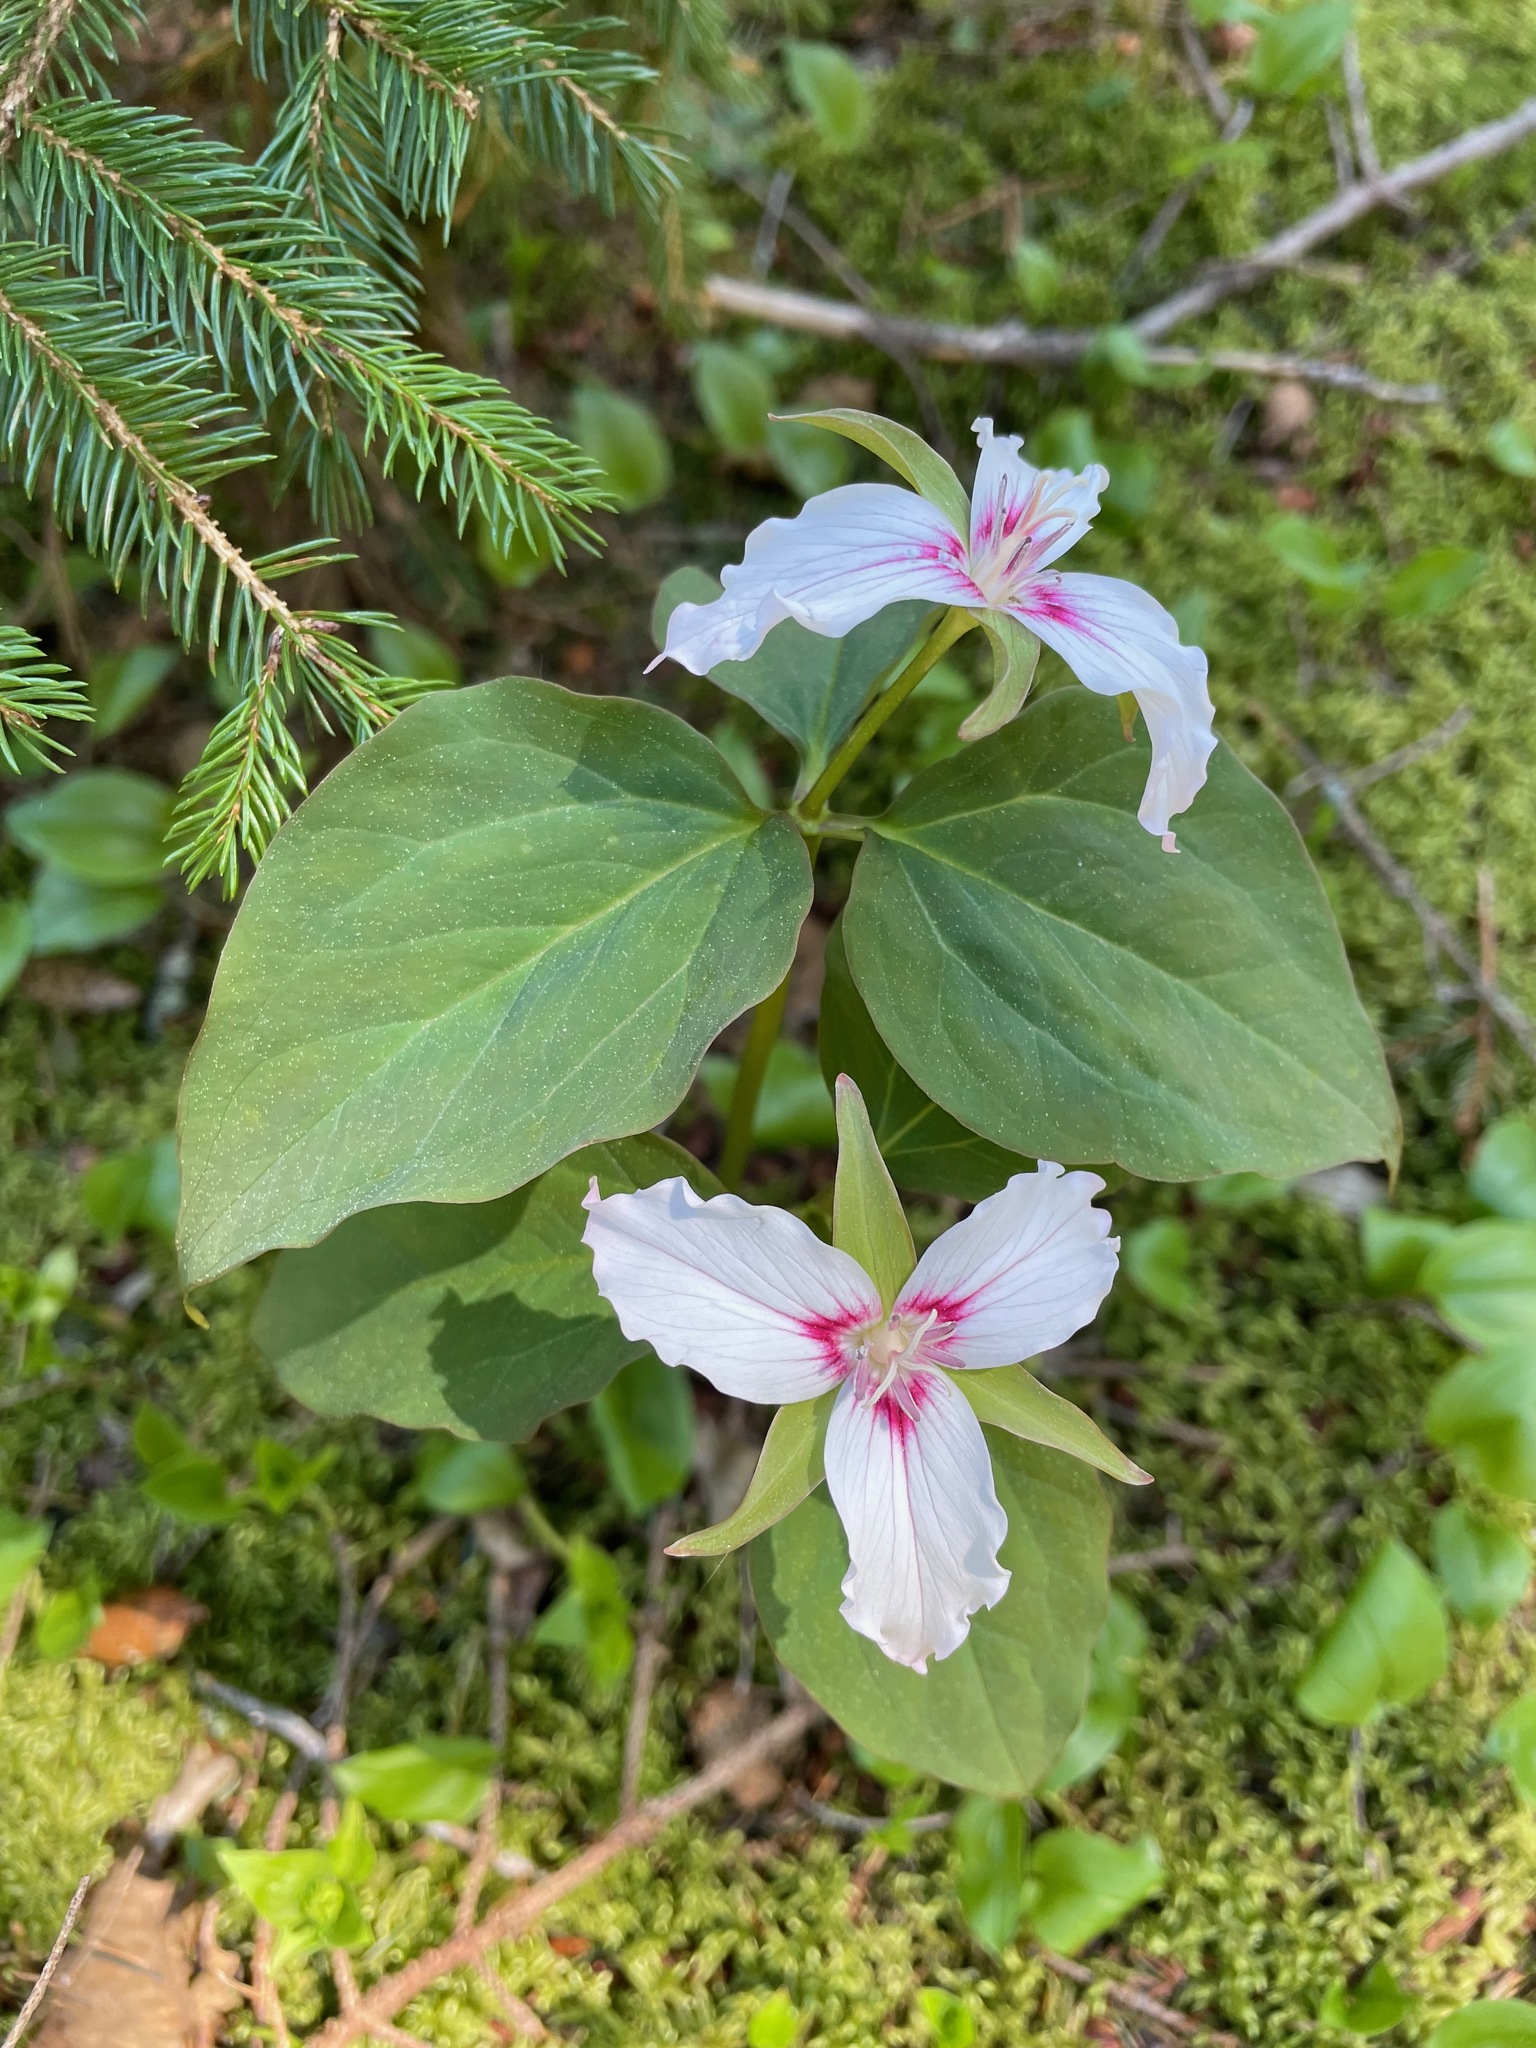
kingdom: Plantae
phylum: Tracheophyta
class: Liliopsida
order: Liliales
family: Melanthiaceae
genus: Trillium
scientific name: Trillium undulatum
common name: Paint trillium
